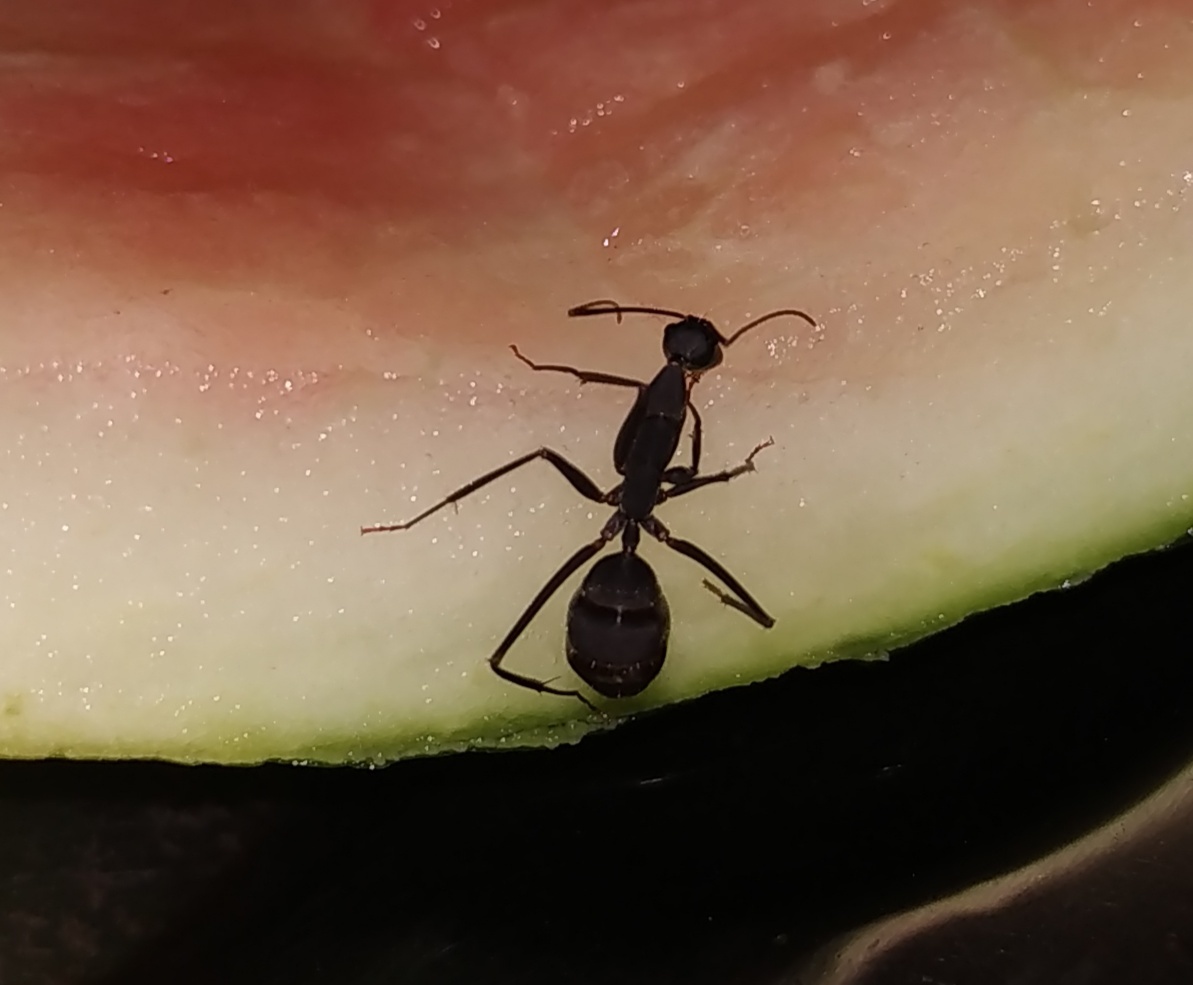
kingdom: Animalia
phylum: Arthropoda
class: Insecta
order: Hymenoptera
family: Formicidae
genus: Camponotus
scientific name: Camponotus angusticollis
